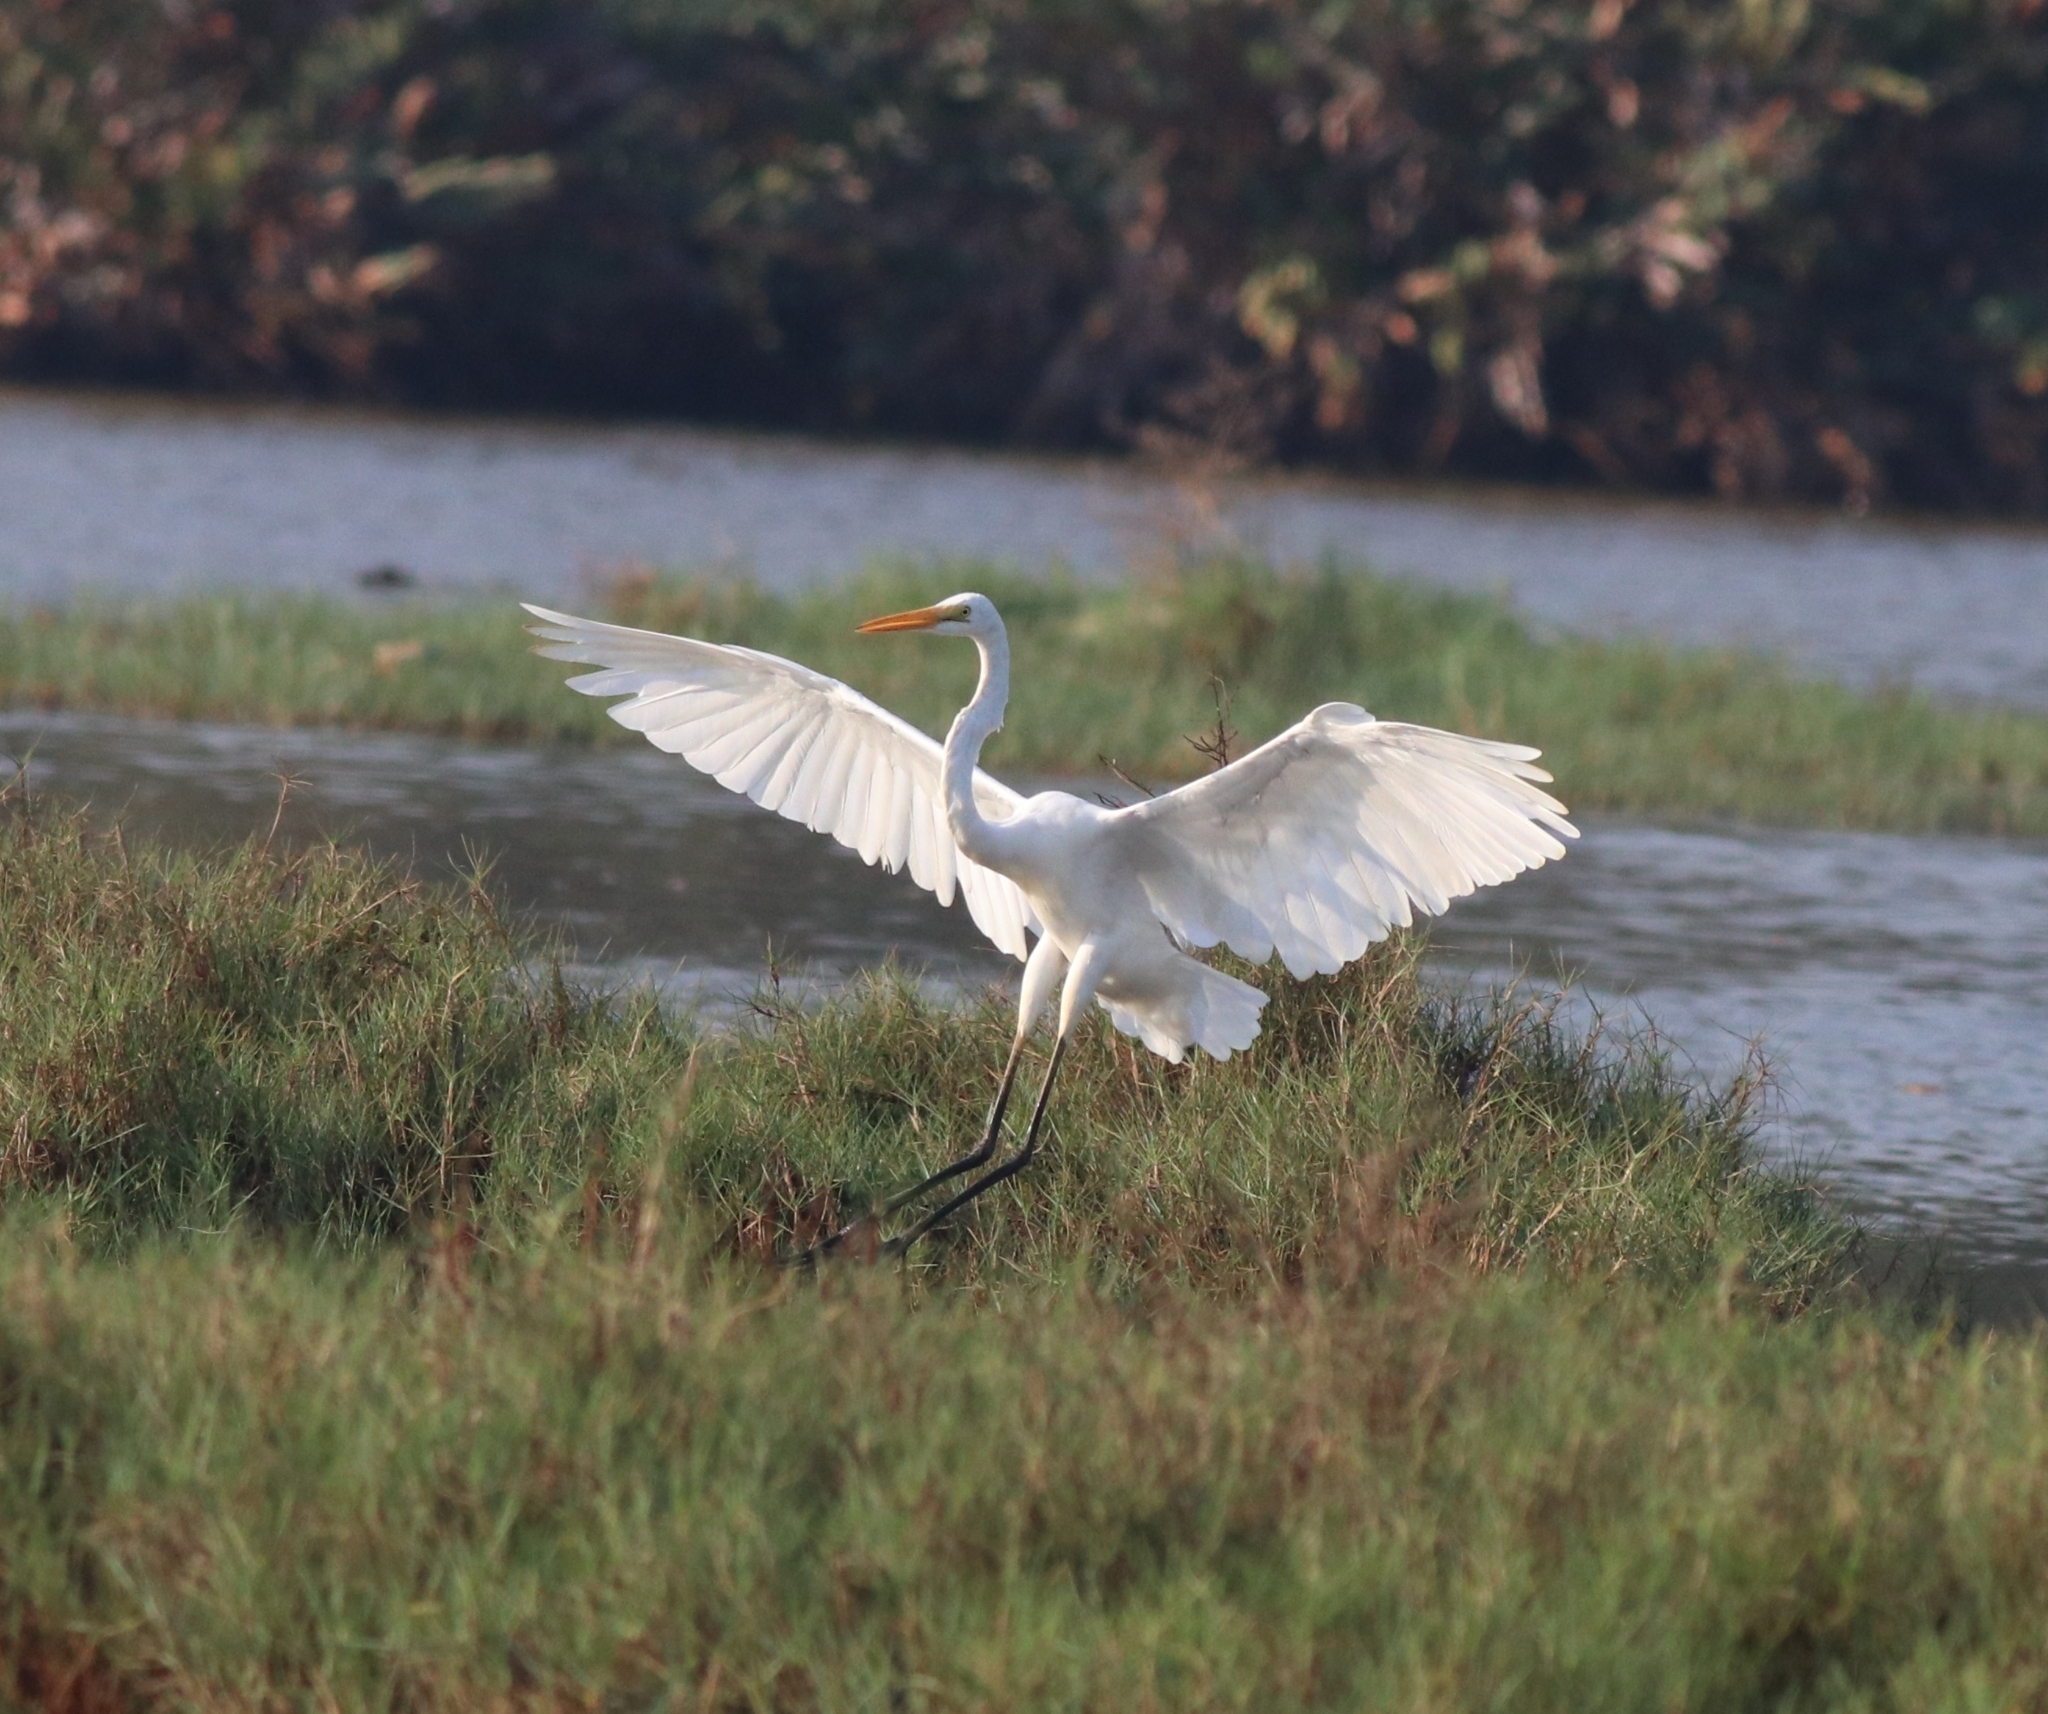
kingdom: Animalia
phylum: Chordata
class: Aves
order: Pelecaniformes
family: Ardeidae
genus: Ardea
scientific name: Ardea alba
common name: Great egret
